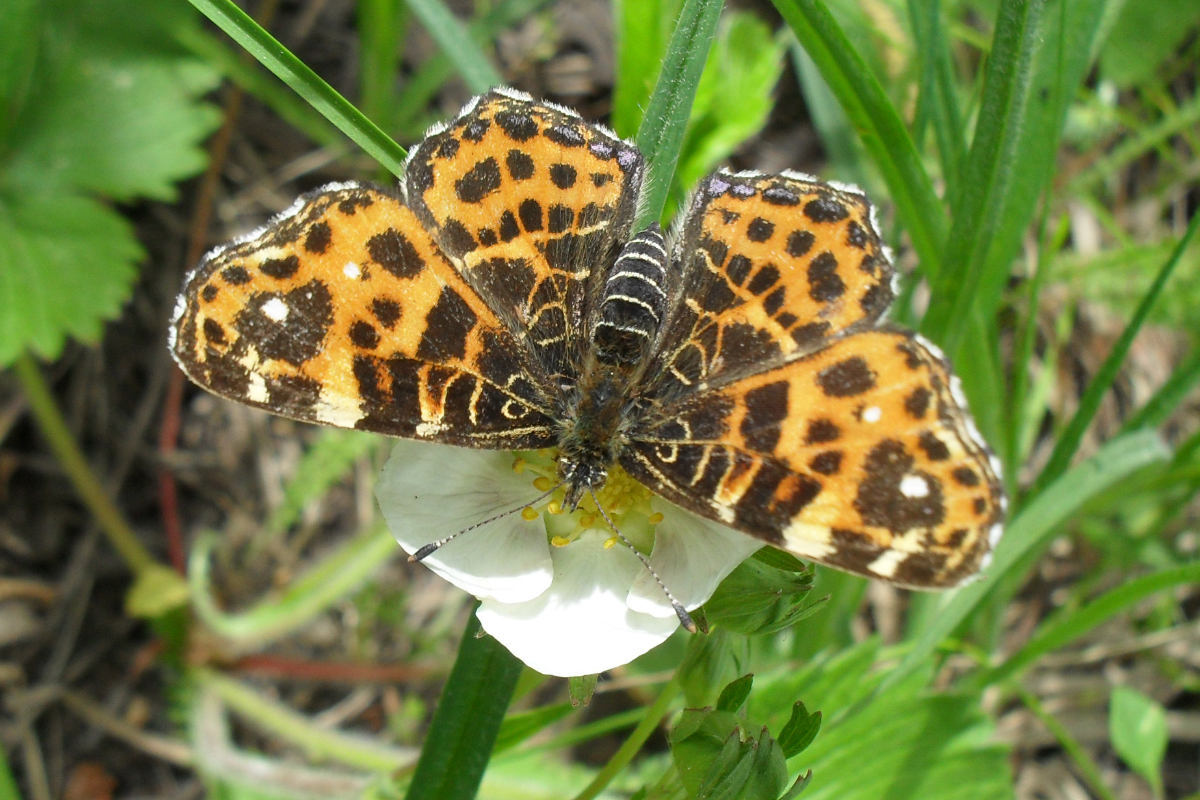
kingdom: Animalia
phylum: Arthropoda
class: Insecta
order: Lepidoptera
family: Nymphalidae
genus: Araschnia
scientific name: Araschnia levana
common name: Map butterfly
